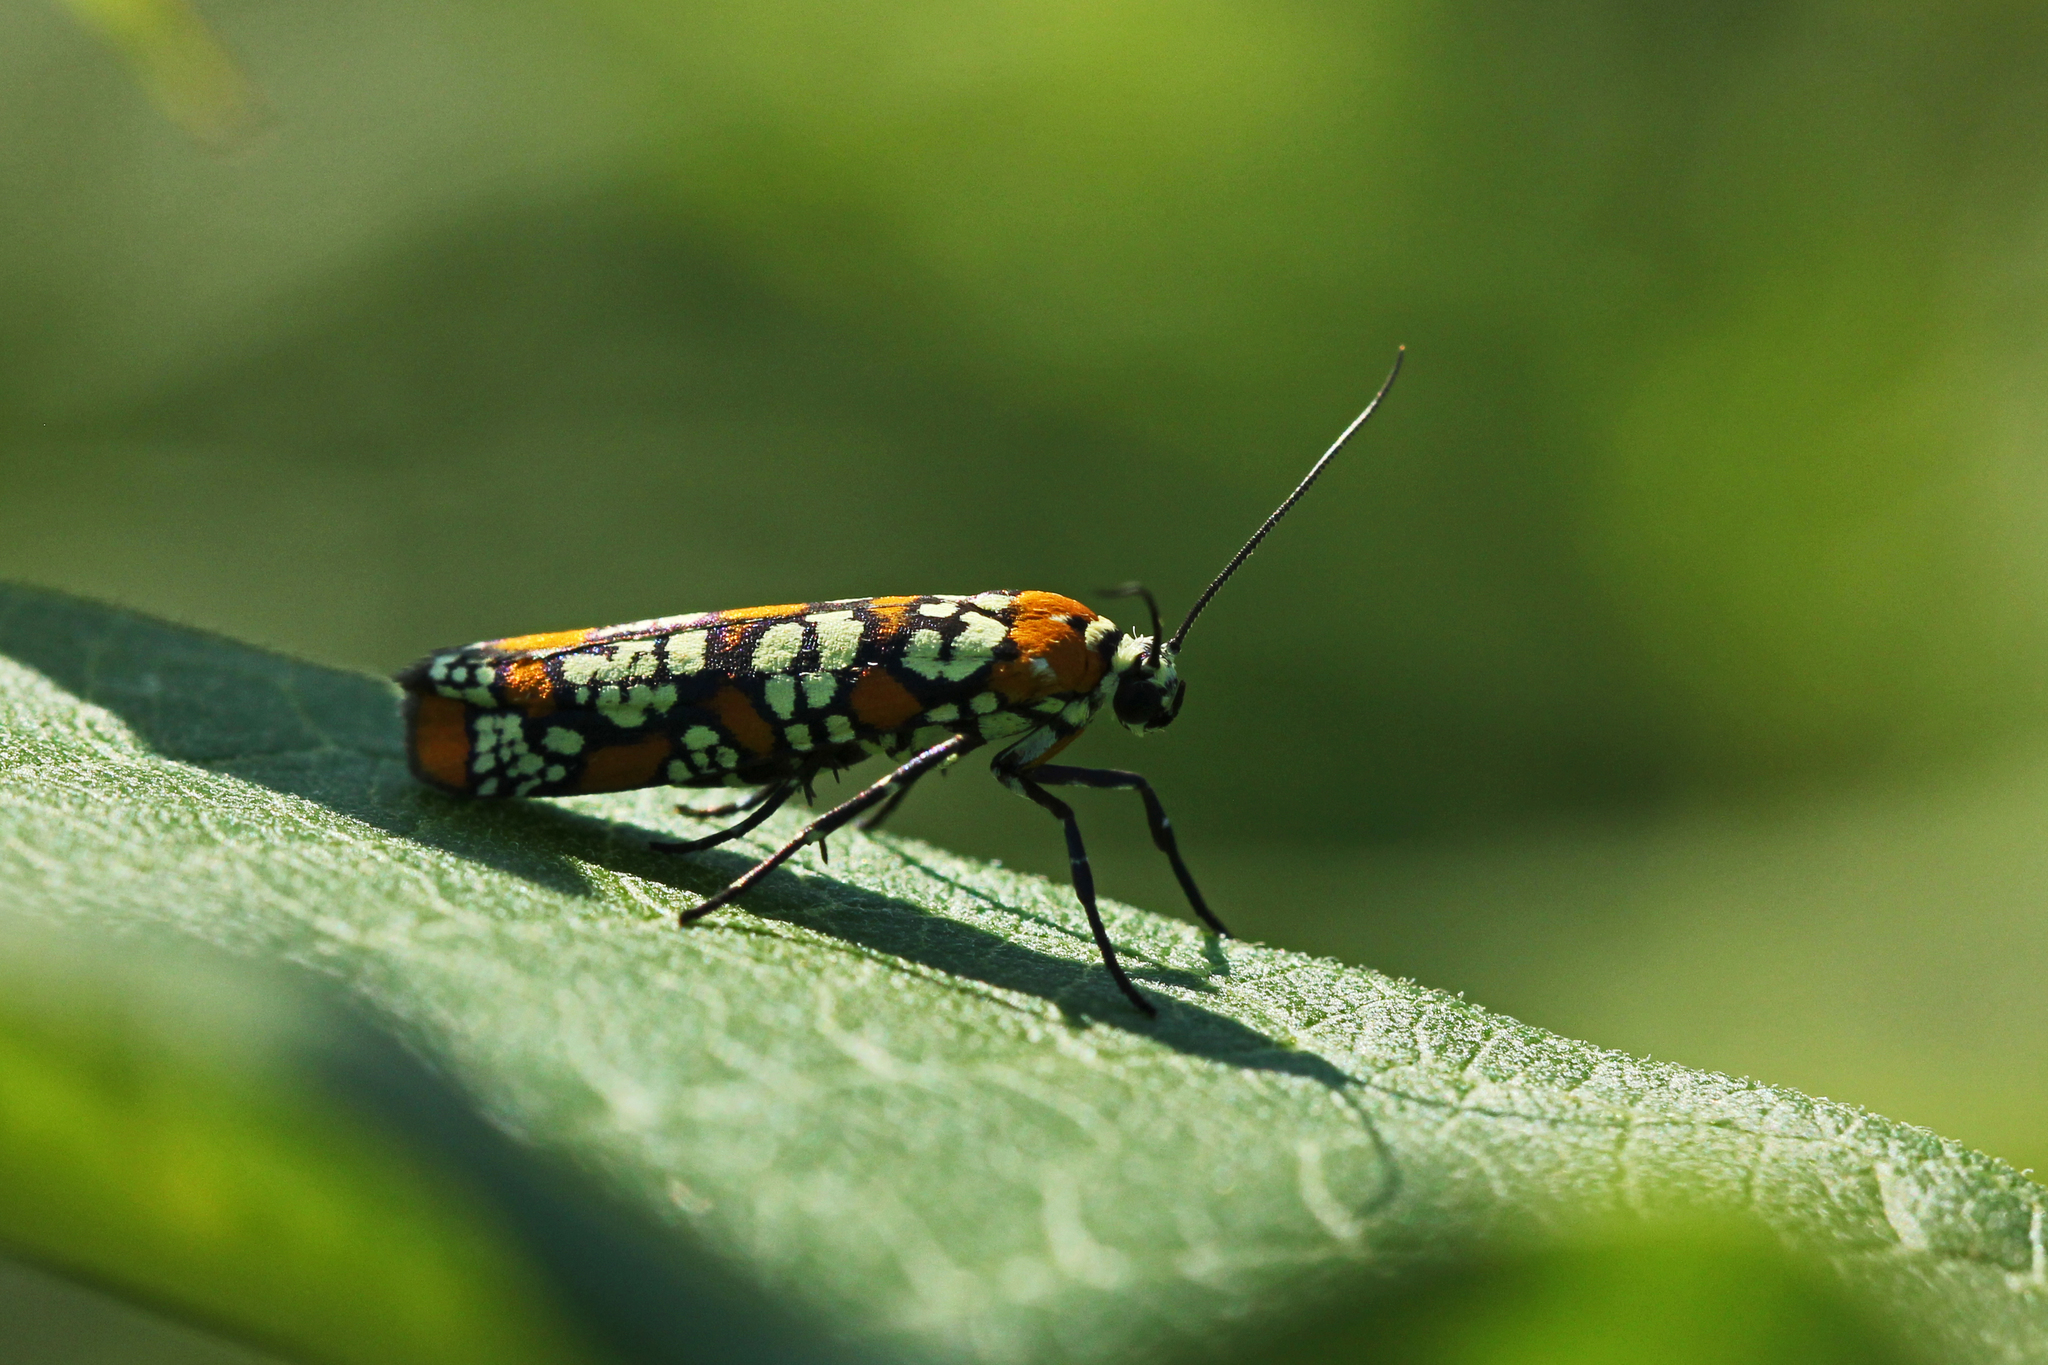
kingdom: Animalia
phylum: Arthropoda
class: Insecta
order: Lepidoptera
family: Attevidae
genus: Atteva
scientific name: Atteva punctella
